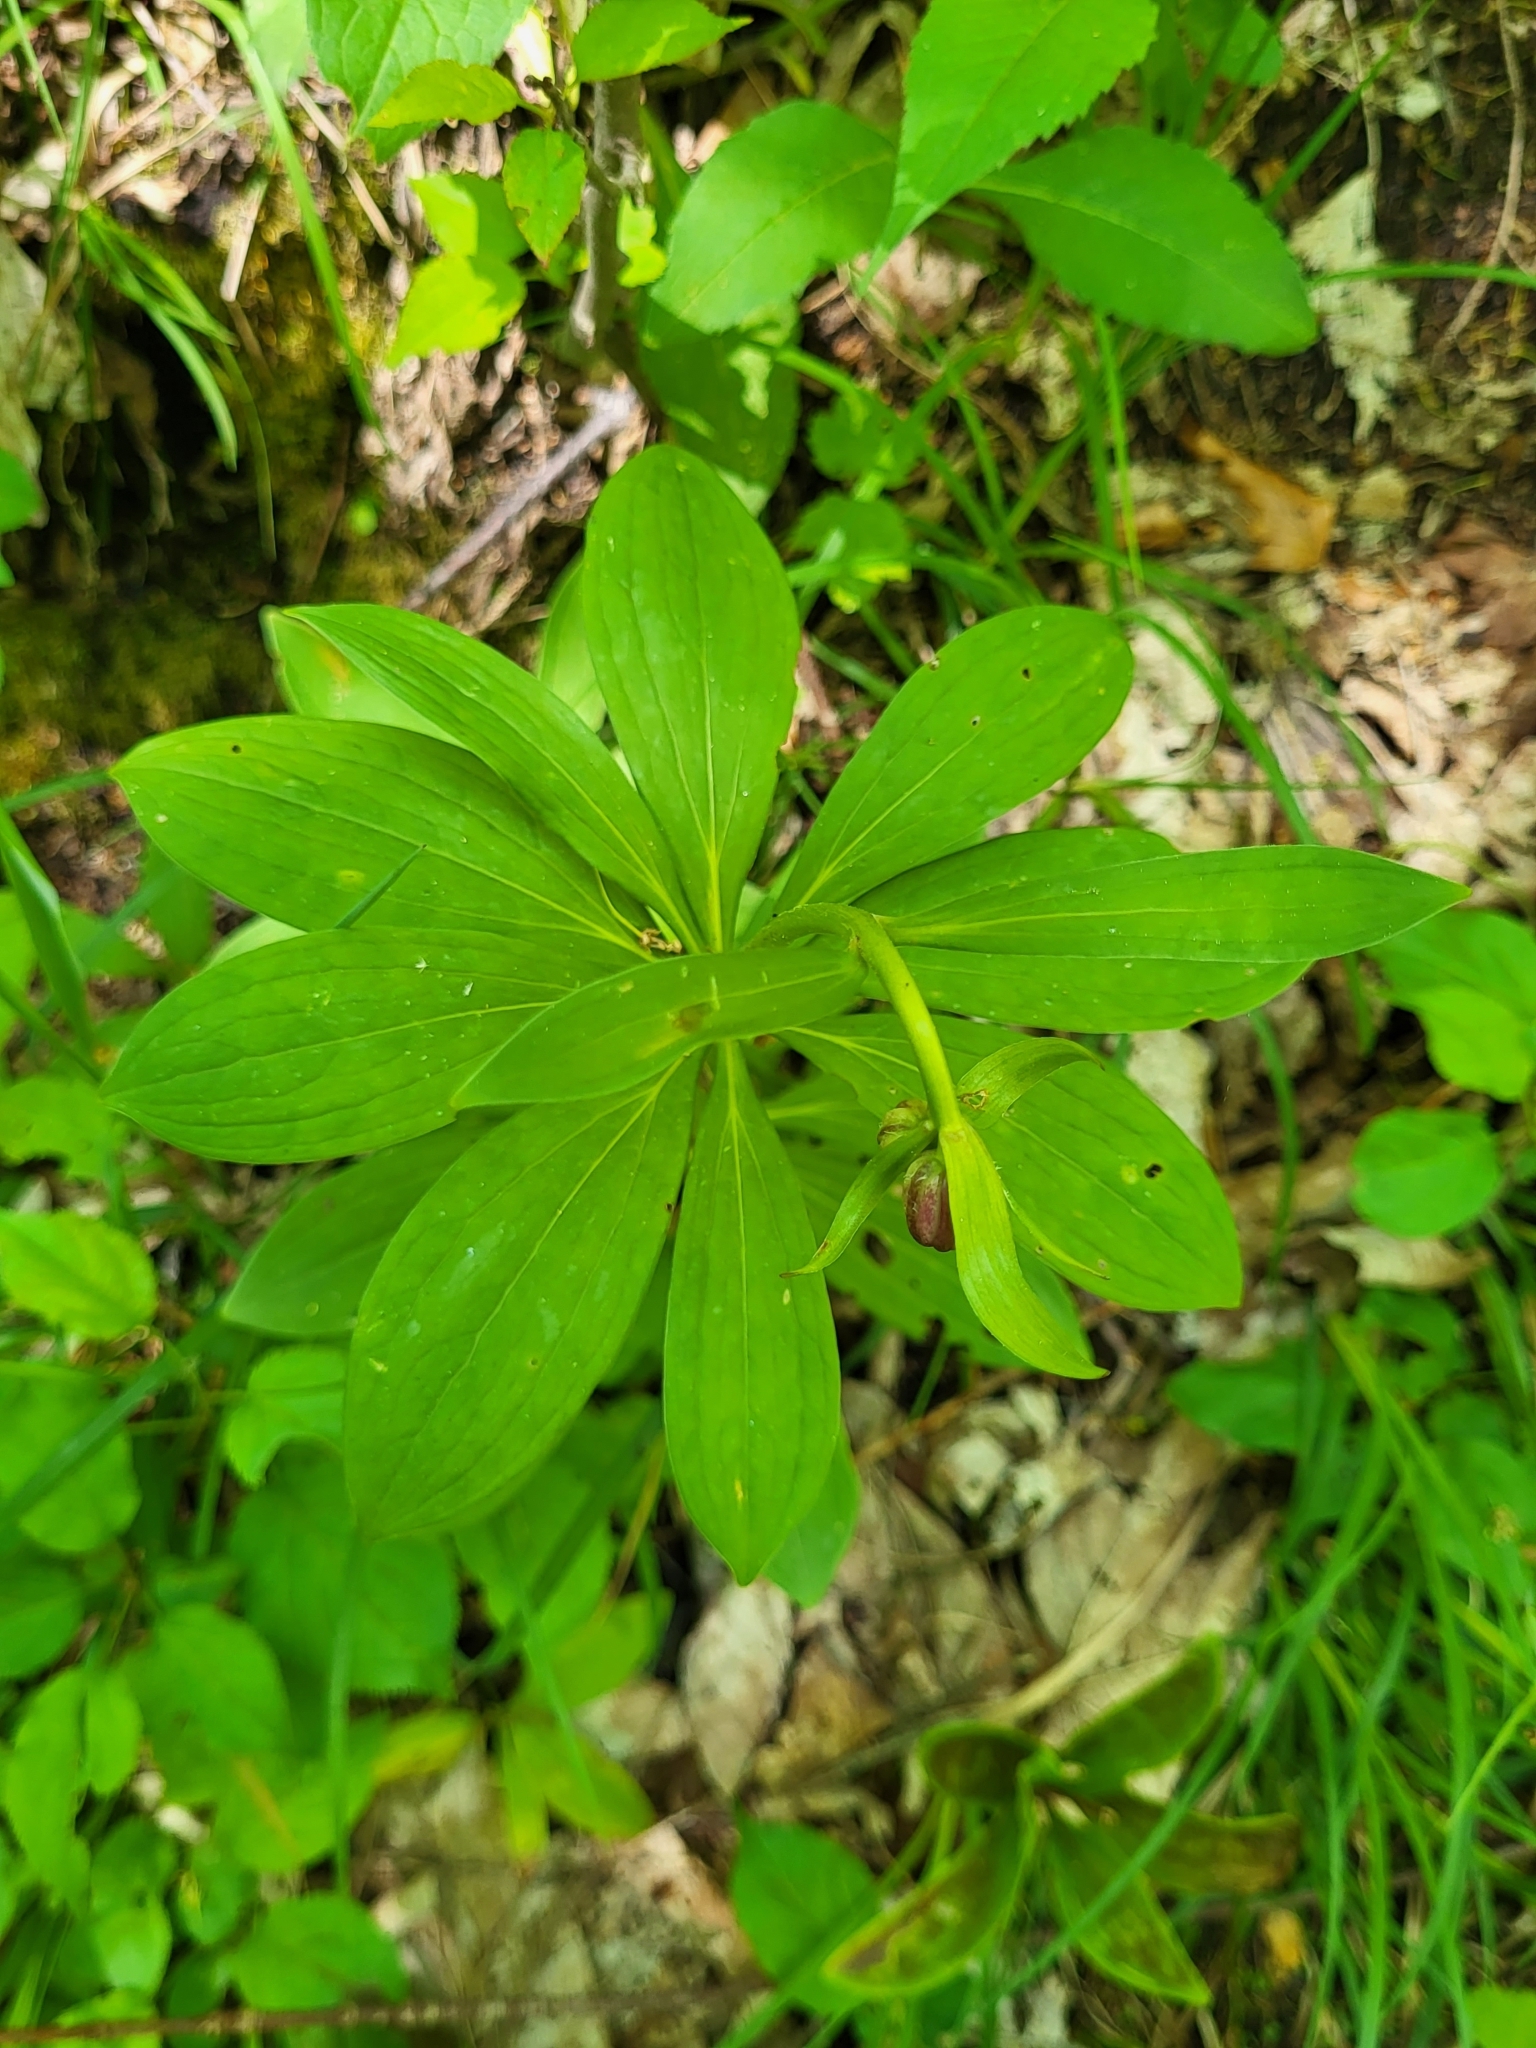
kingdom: Plantae
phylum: Tracheophyta
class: Liliopsida
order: Liliales
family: Liliaceae
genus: Lilium
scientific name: Lilium martagon
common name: Martagon lily
